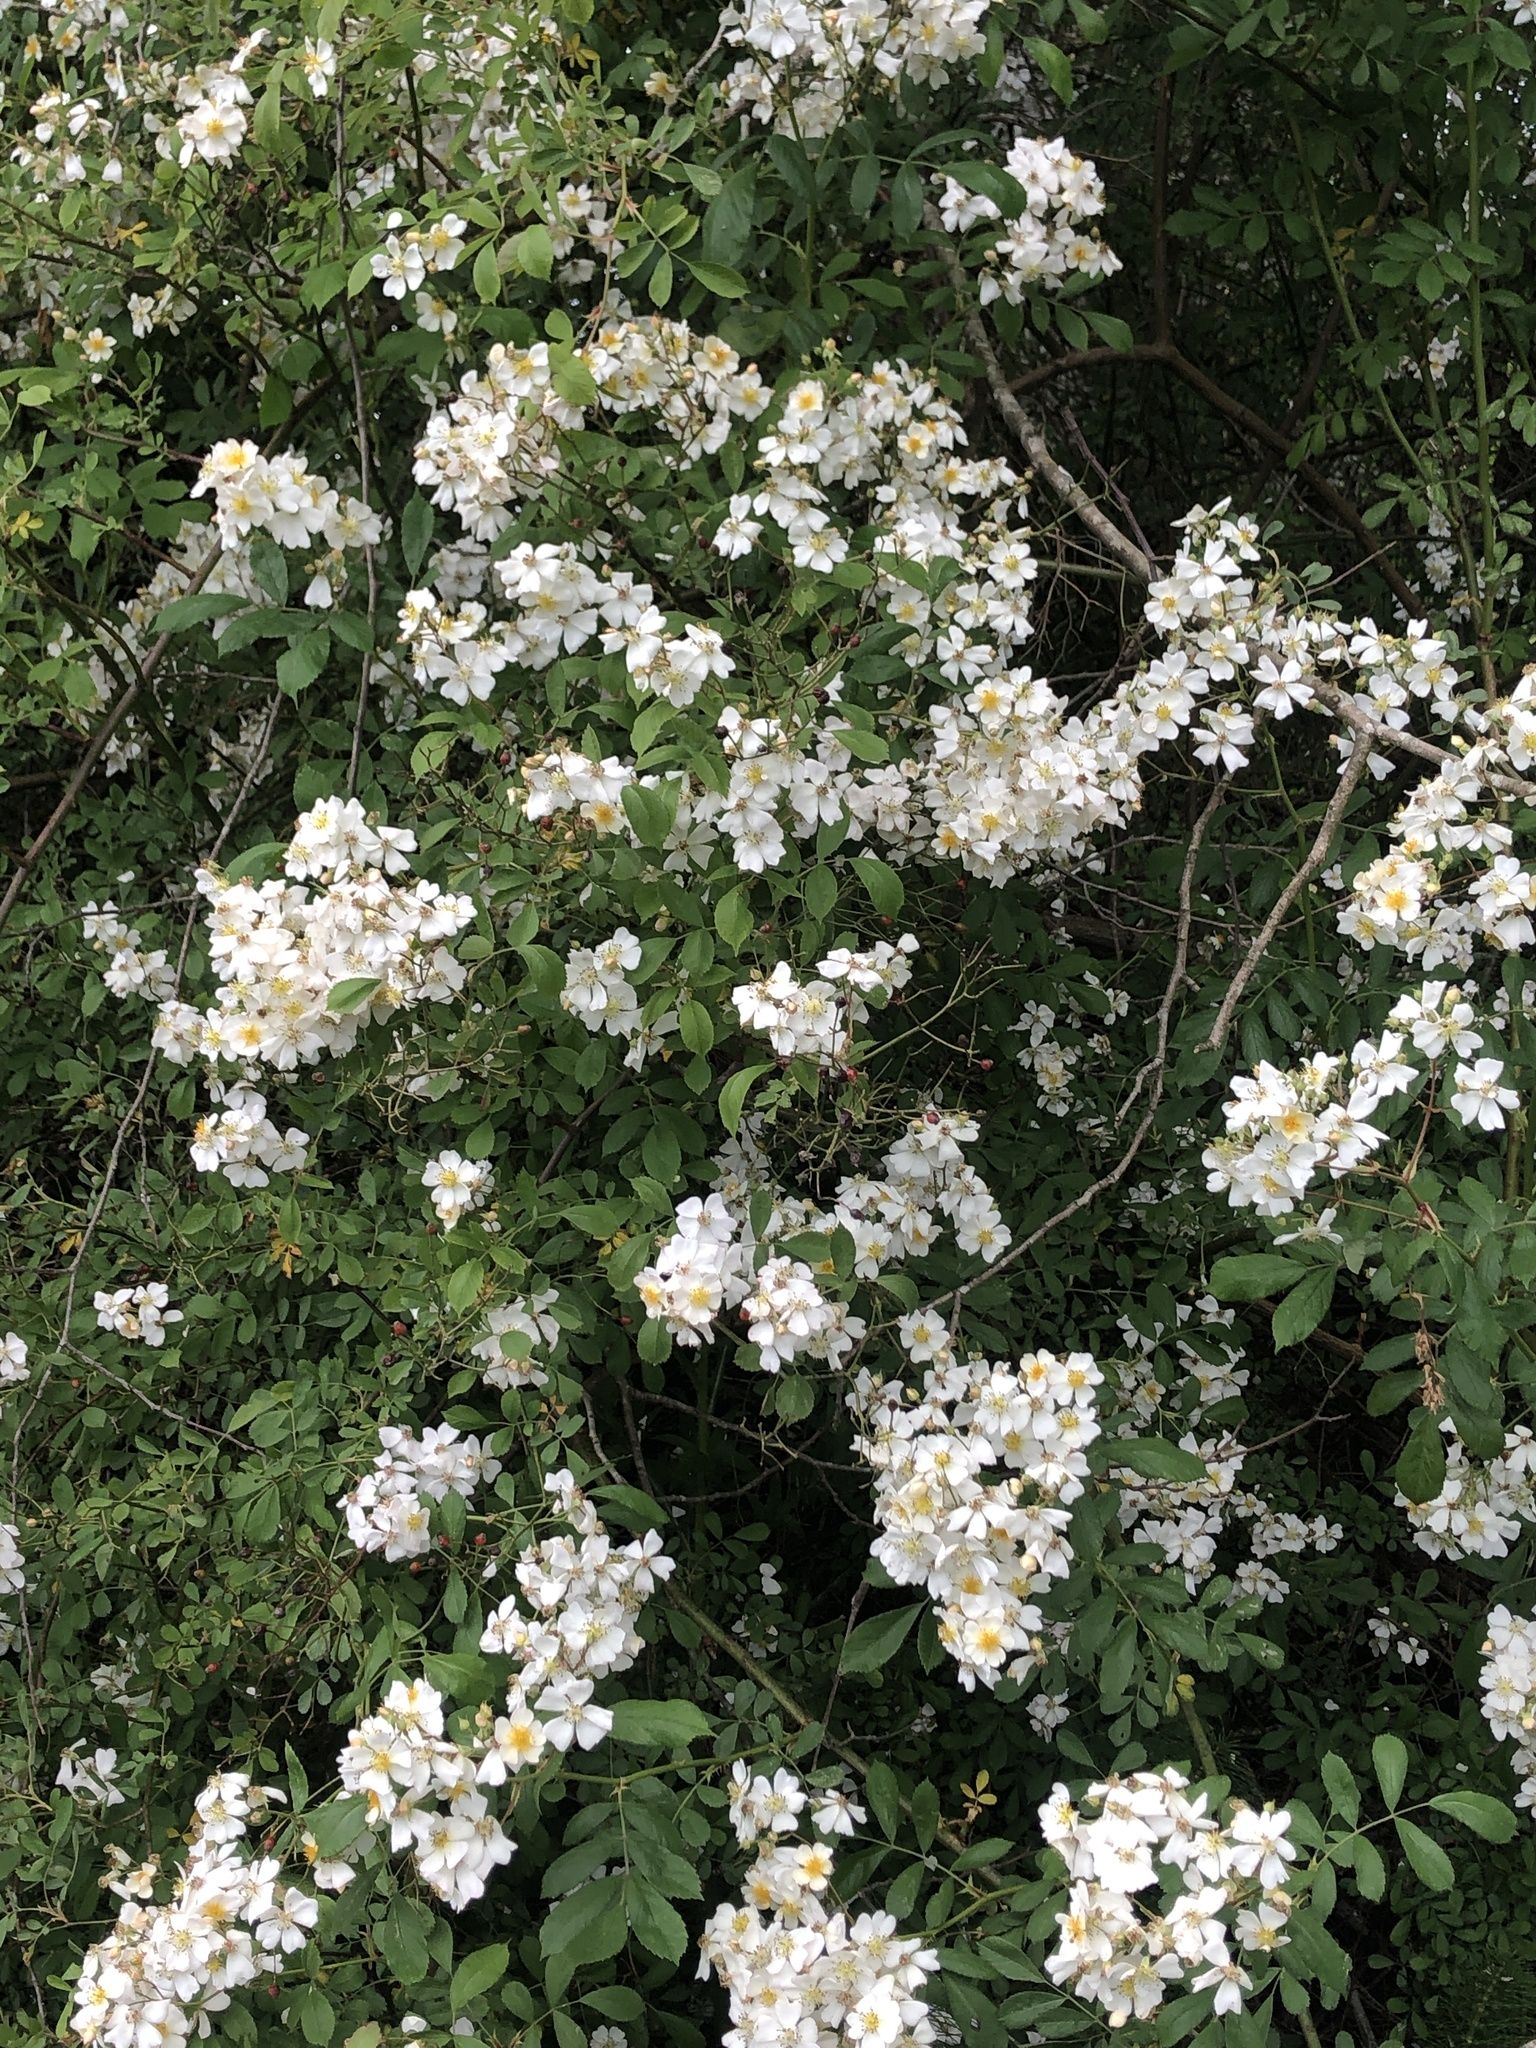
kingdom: Plantae
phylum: Tracheophyta
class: Magnoliopsida
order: Rosales
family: Rosaceae
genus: Rosa
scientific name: Rosa multiflora
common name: Multiflora rose
